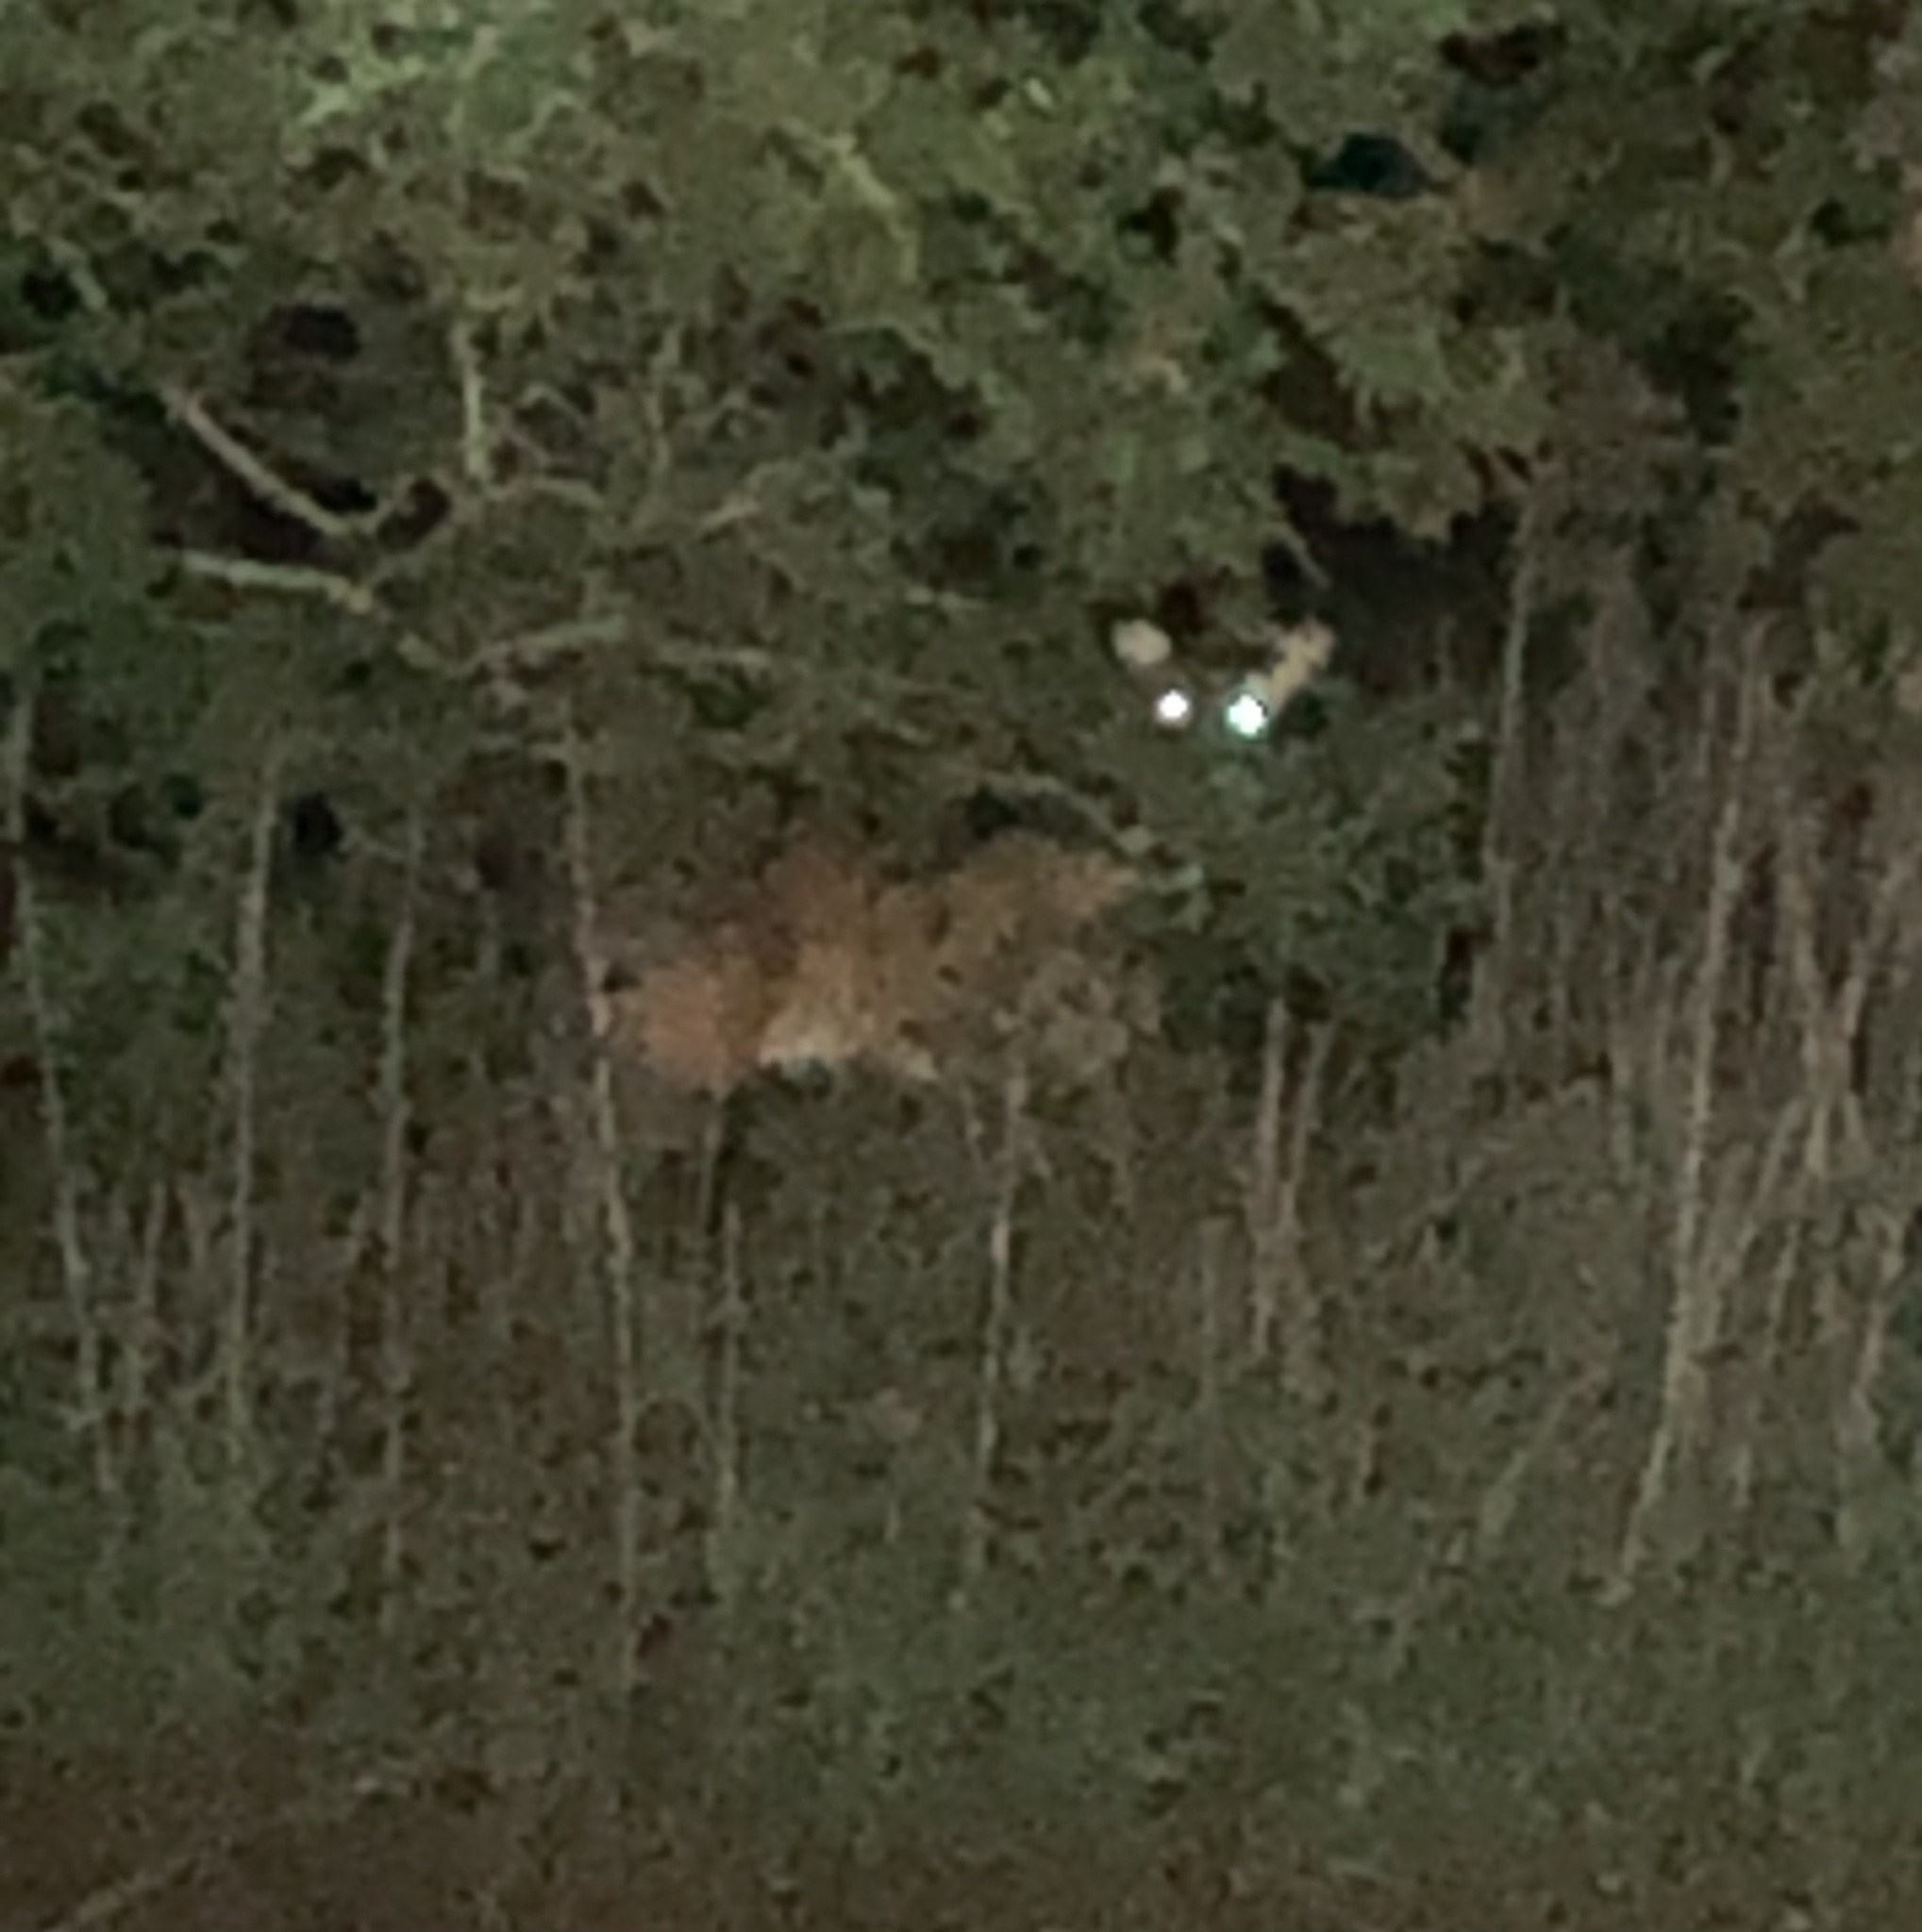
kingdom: Animalia
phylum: Chordata
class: Mammalia
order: Artiodactyla
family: Cervidae
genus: Odocoileus
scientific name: Odocoileus virginianus
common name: White-tailed deer
